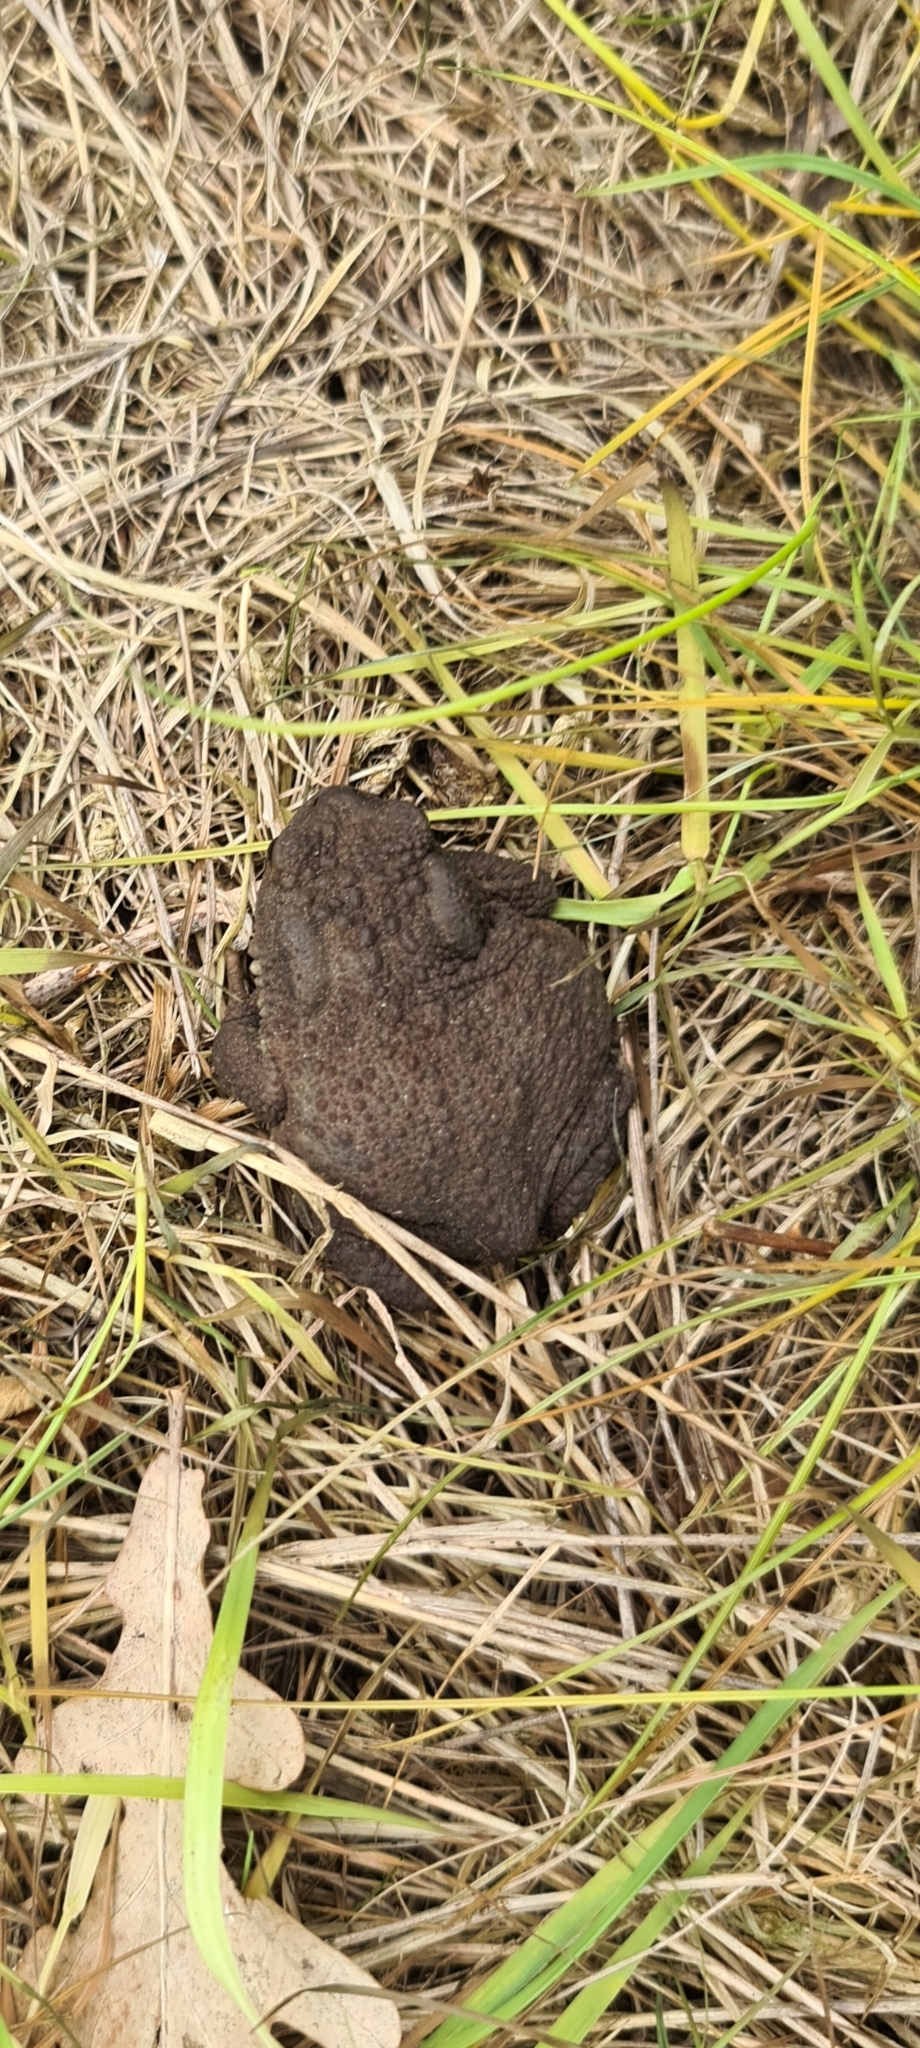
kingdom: Animalia
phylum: Chordata
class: Amphibia
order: Anura
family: Bufonidae
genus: Bufo
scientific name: Bufo bufo
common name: Common toad
